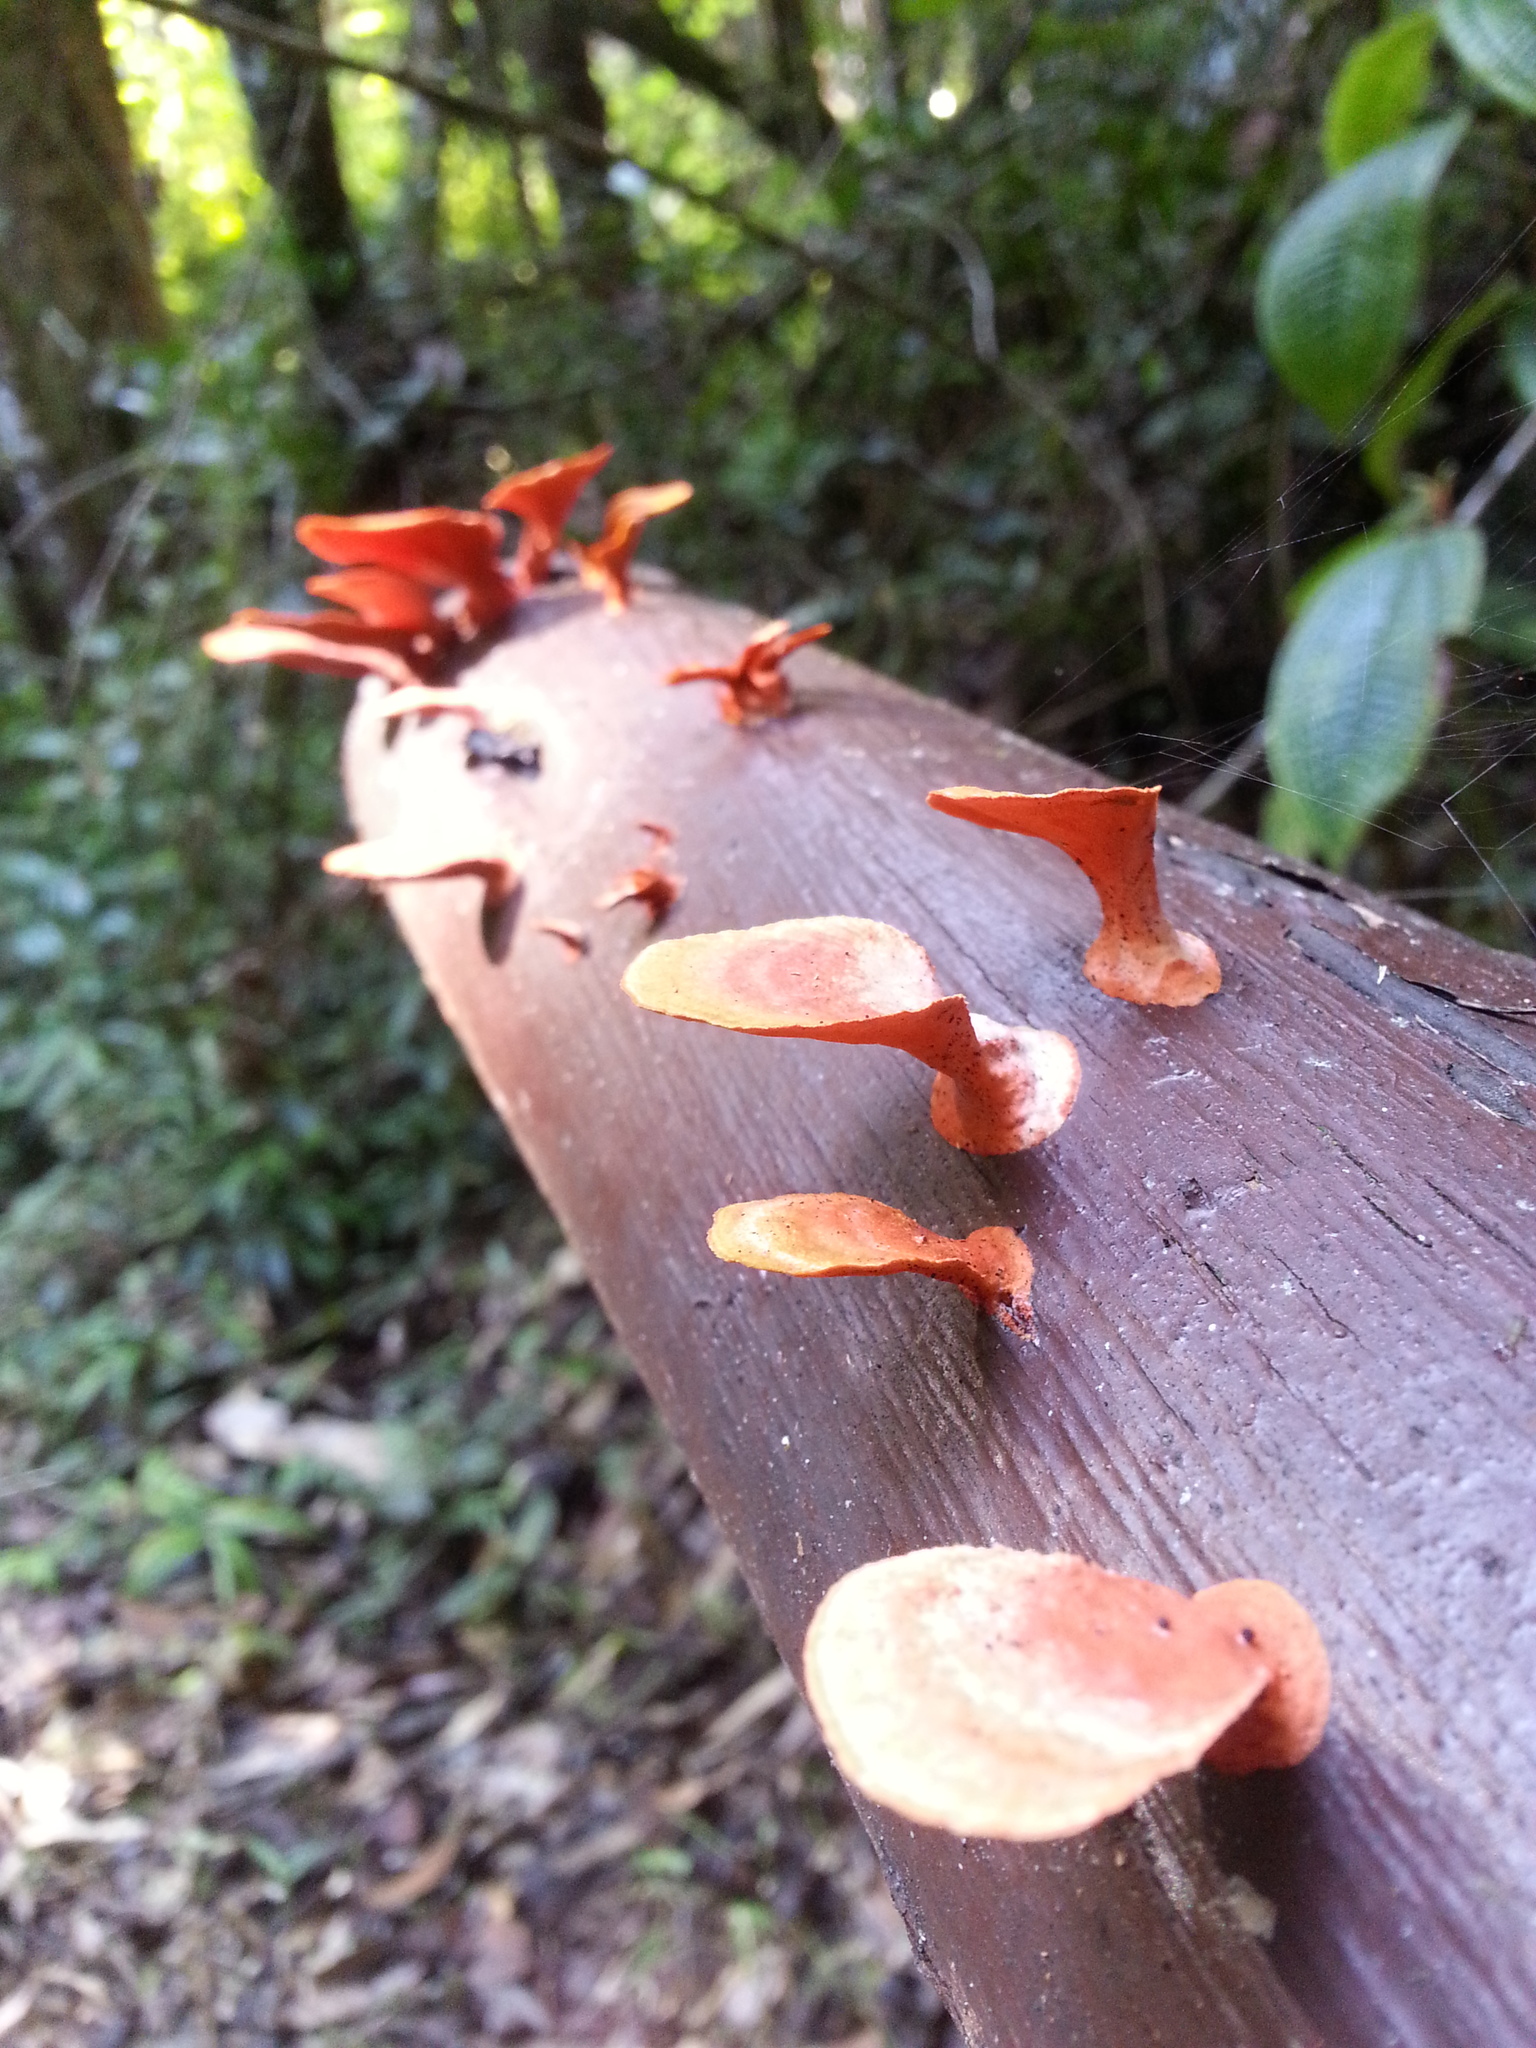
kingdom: Fungi
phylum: Basidiomycota
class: Agaricomycetes
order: Polyporales
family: Polyporaceae
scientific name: Polyporaceae
